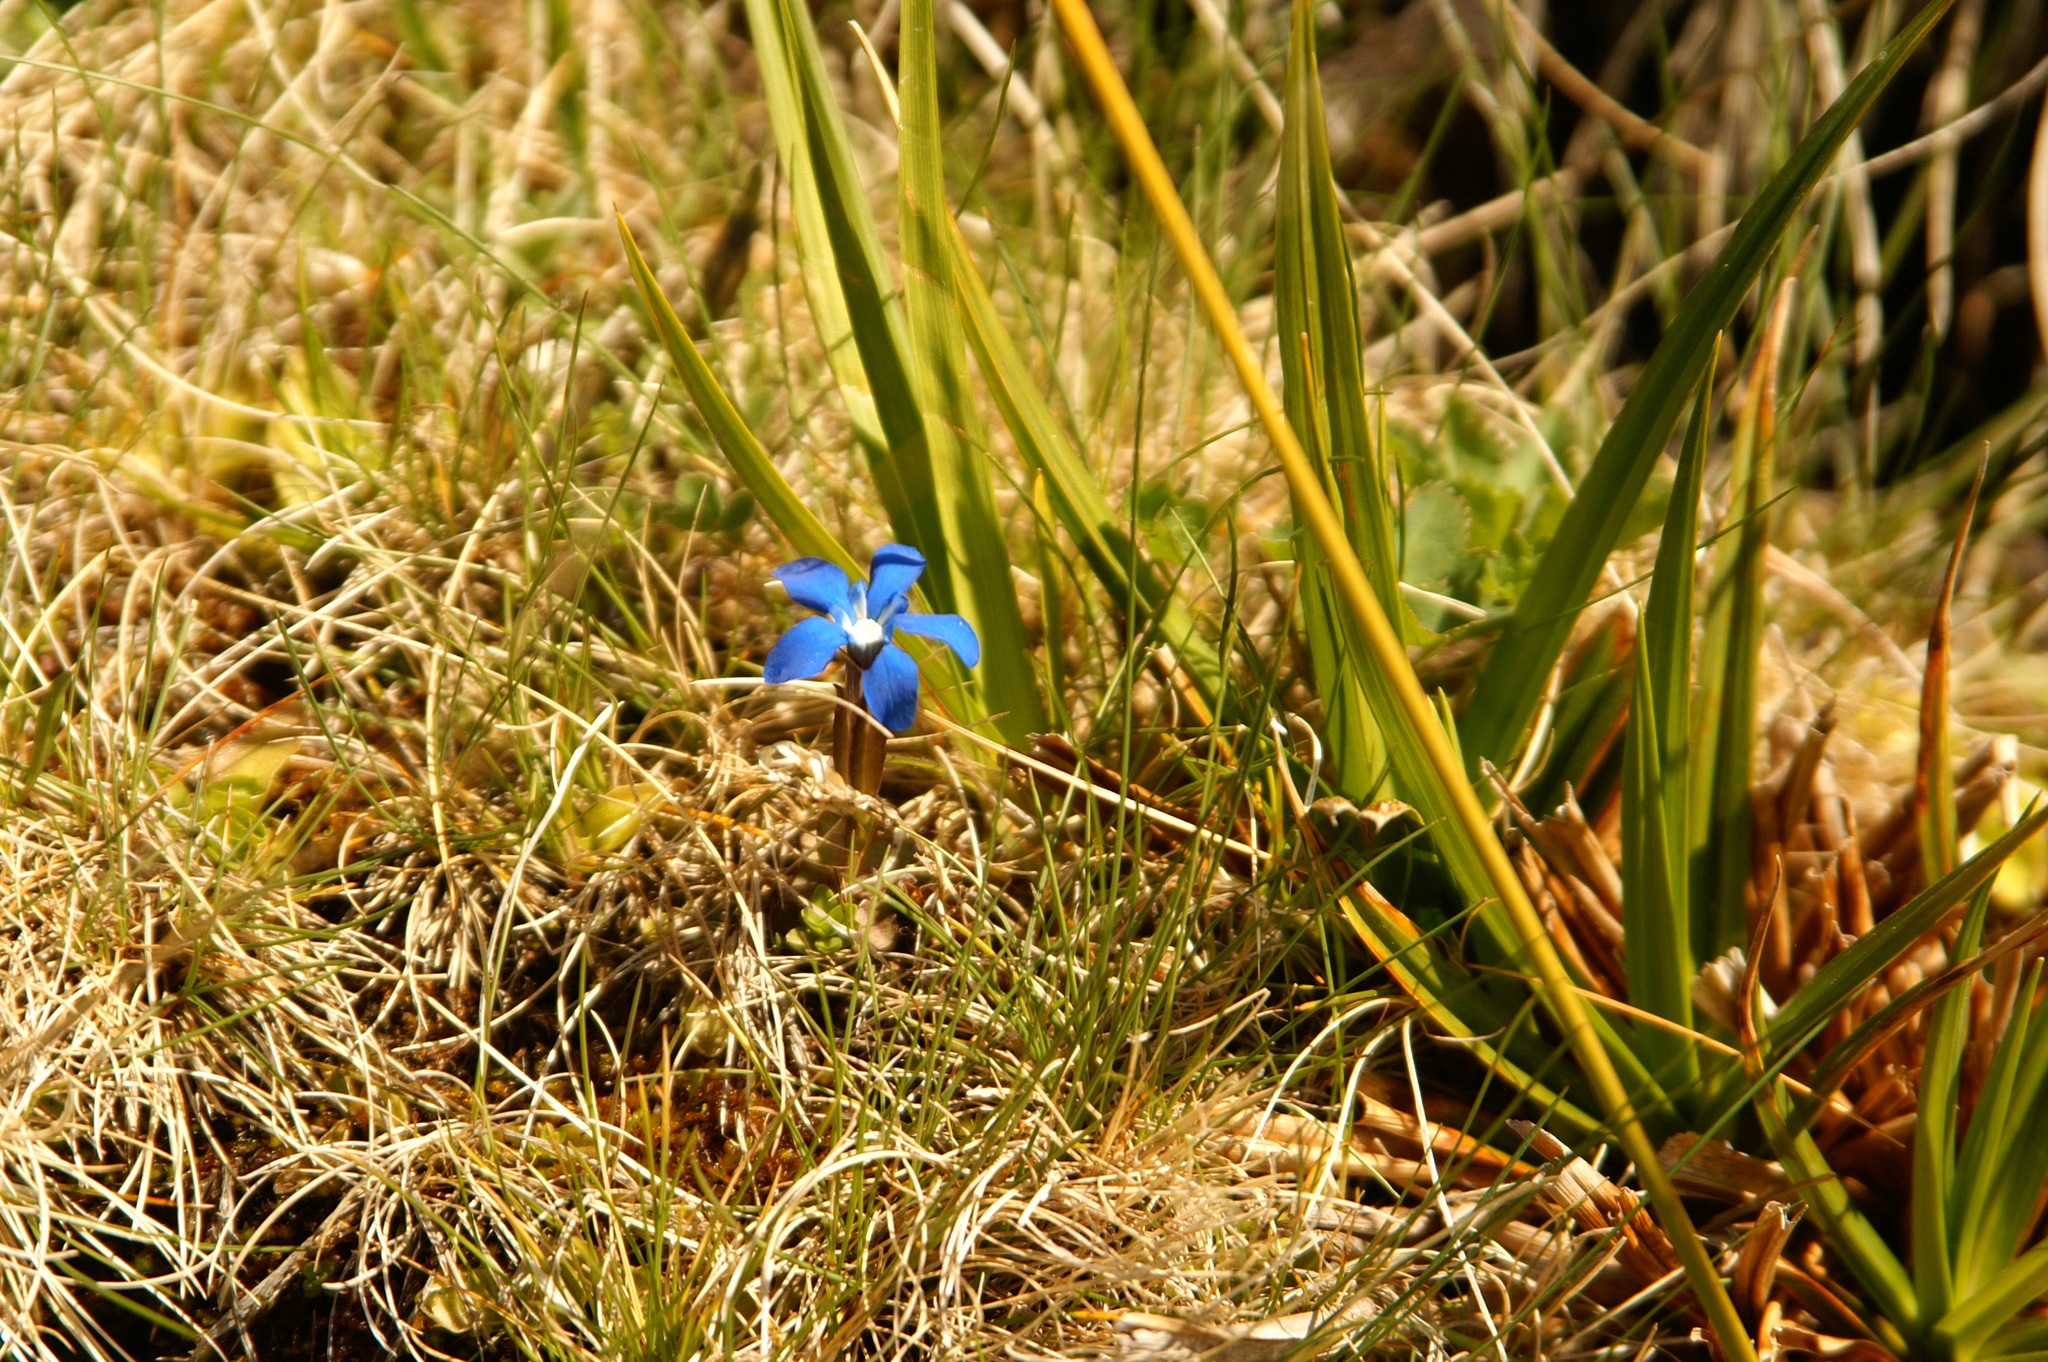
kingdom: Plantae
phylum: Tracheophyta
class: Magnoliopsida
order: Gentianales
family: Gentianaceae
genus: Gentiana
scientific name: Gentiana sierrae
